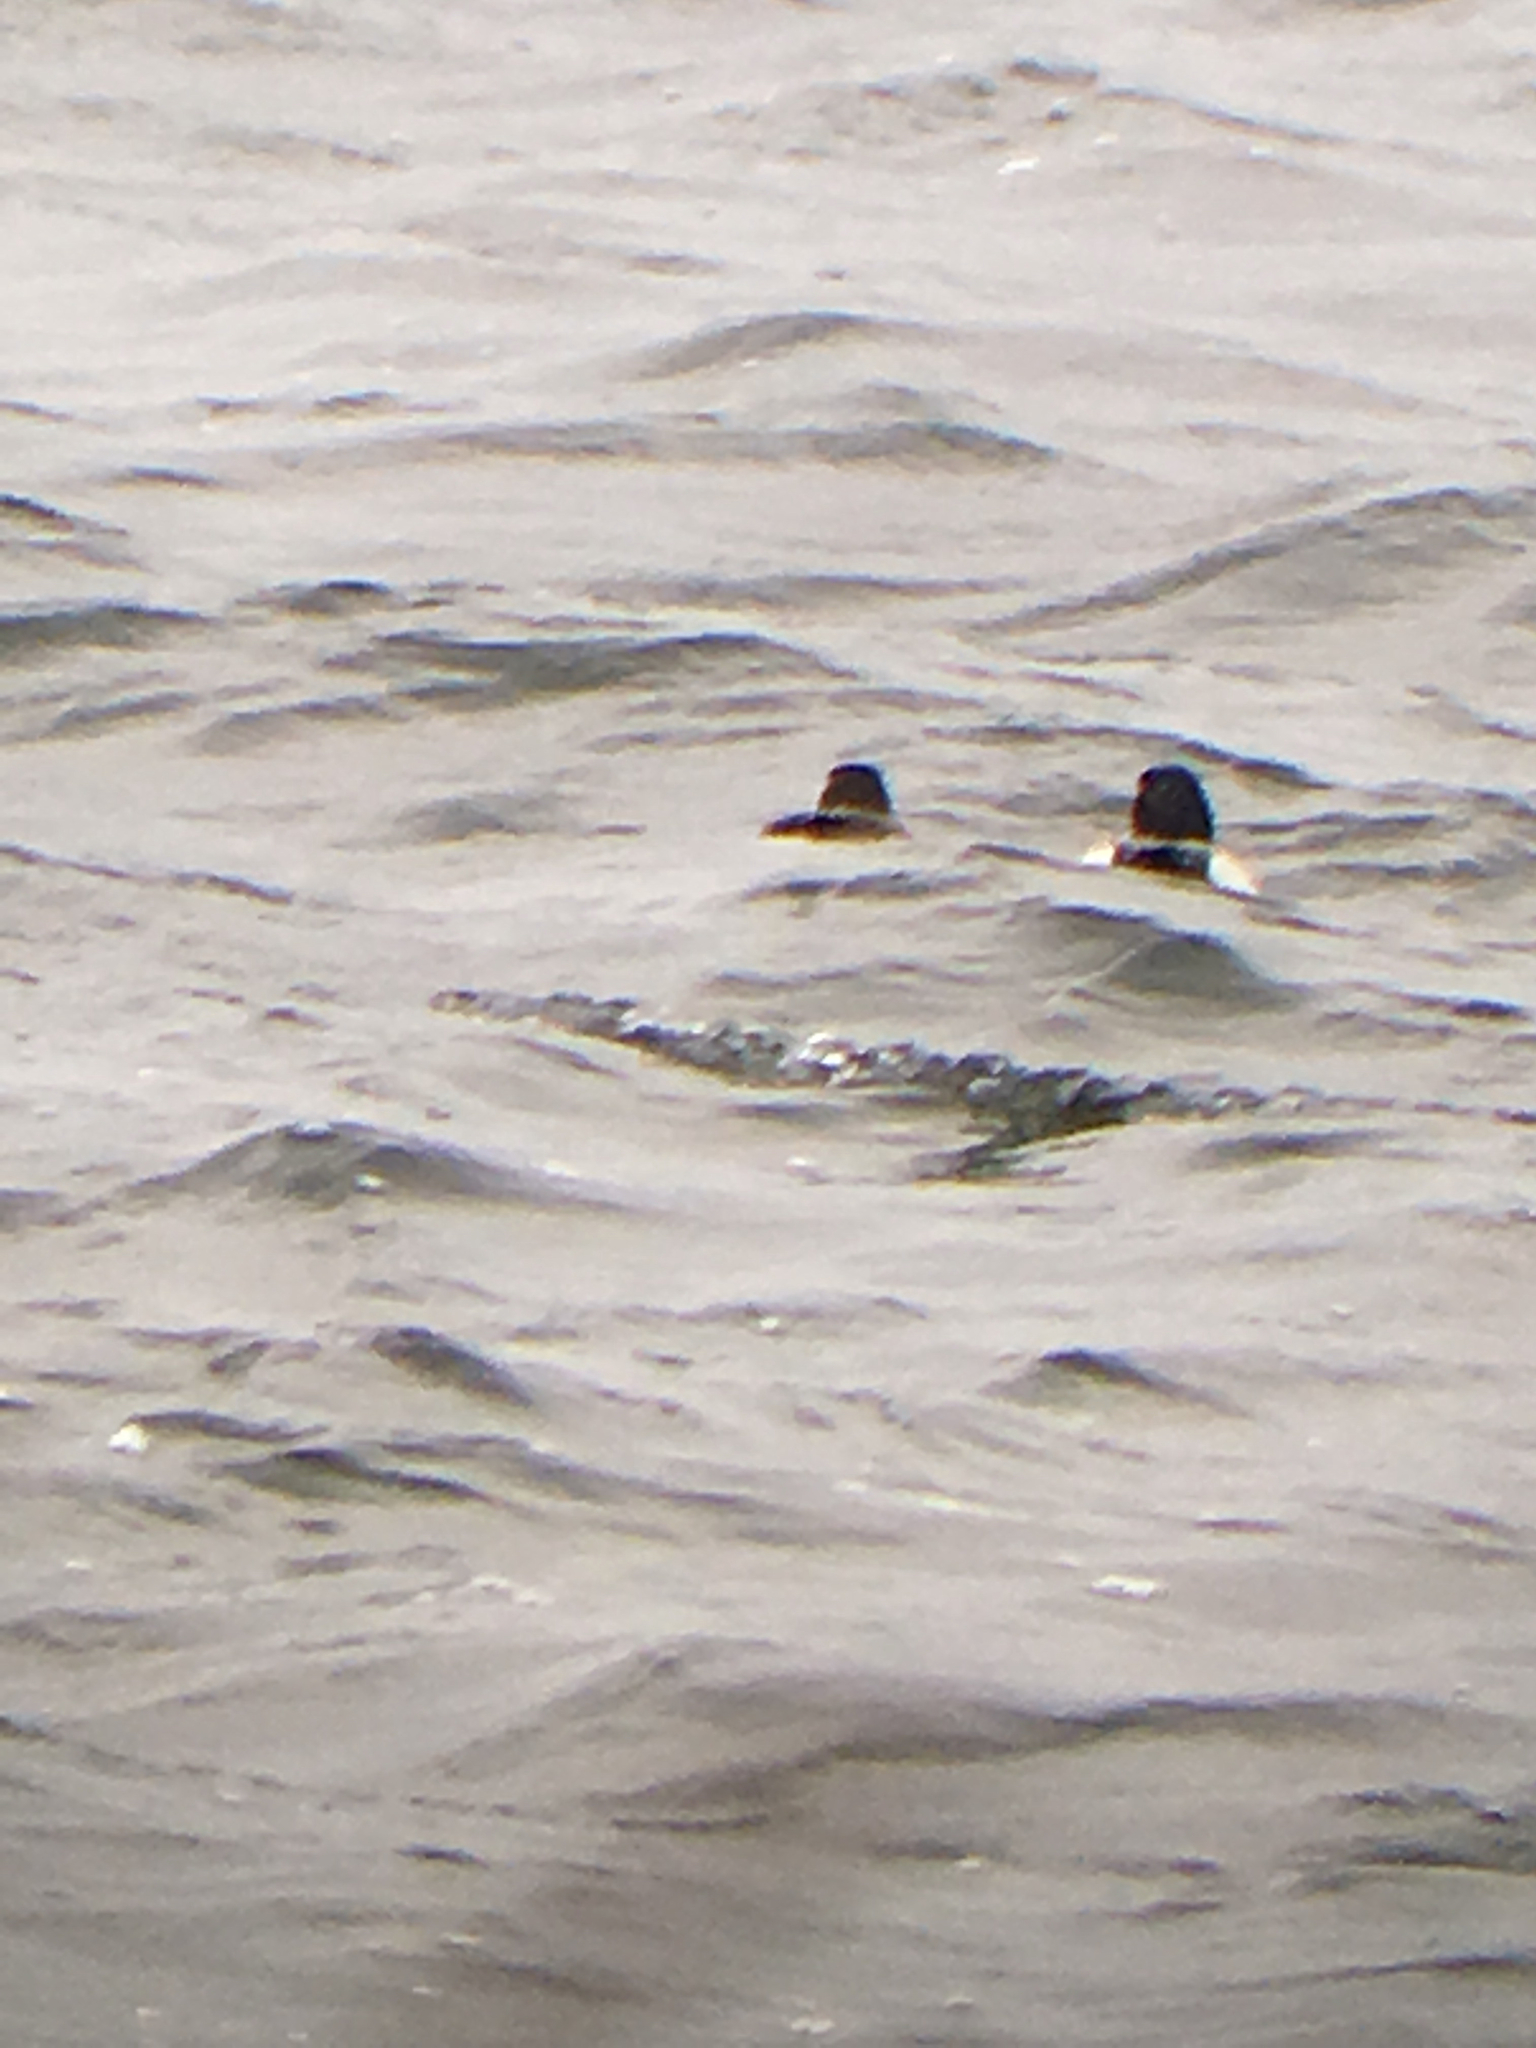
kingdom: Animalia
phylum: Chordata
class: Aves
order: Anseriformes
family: Anatidae
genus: Aythya
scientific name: Aythya marila
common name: Greater scaup
